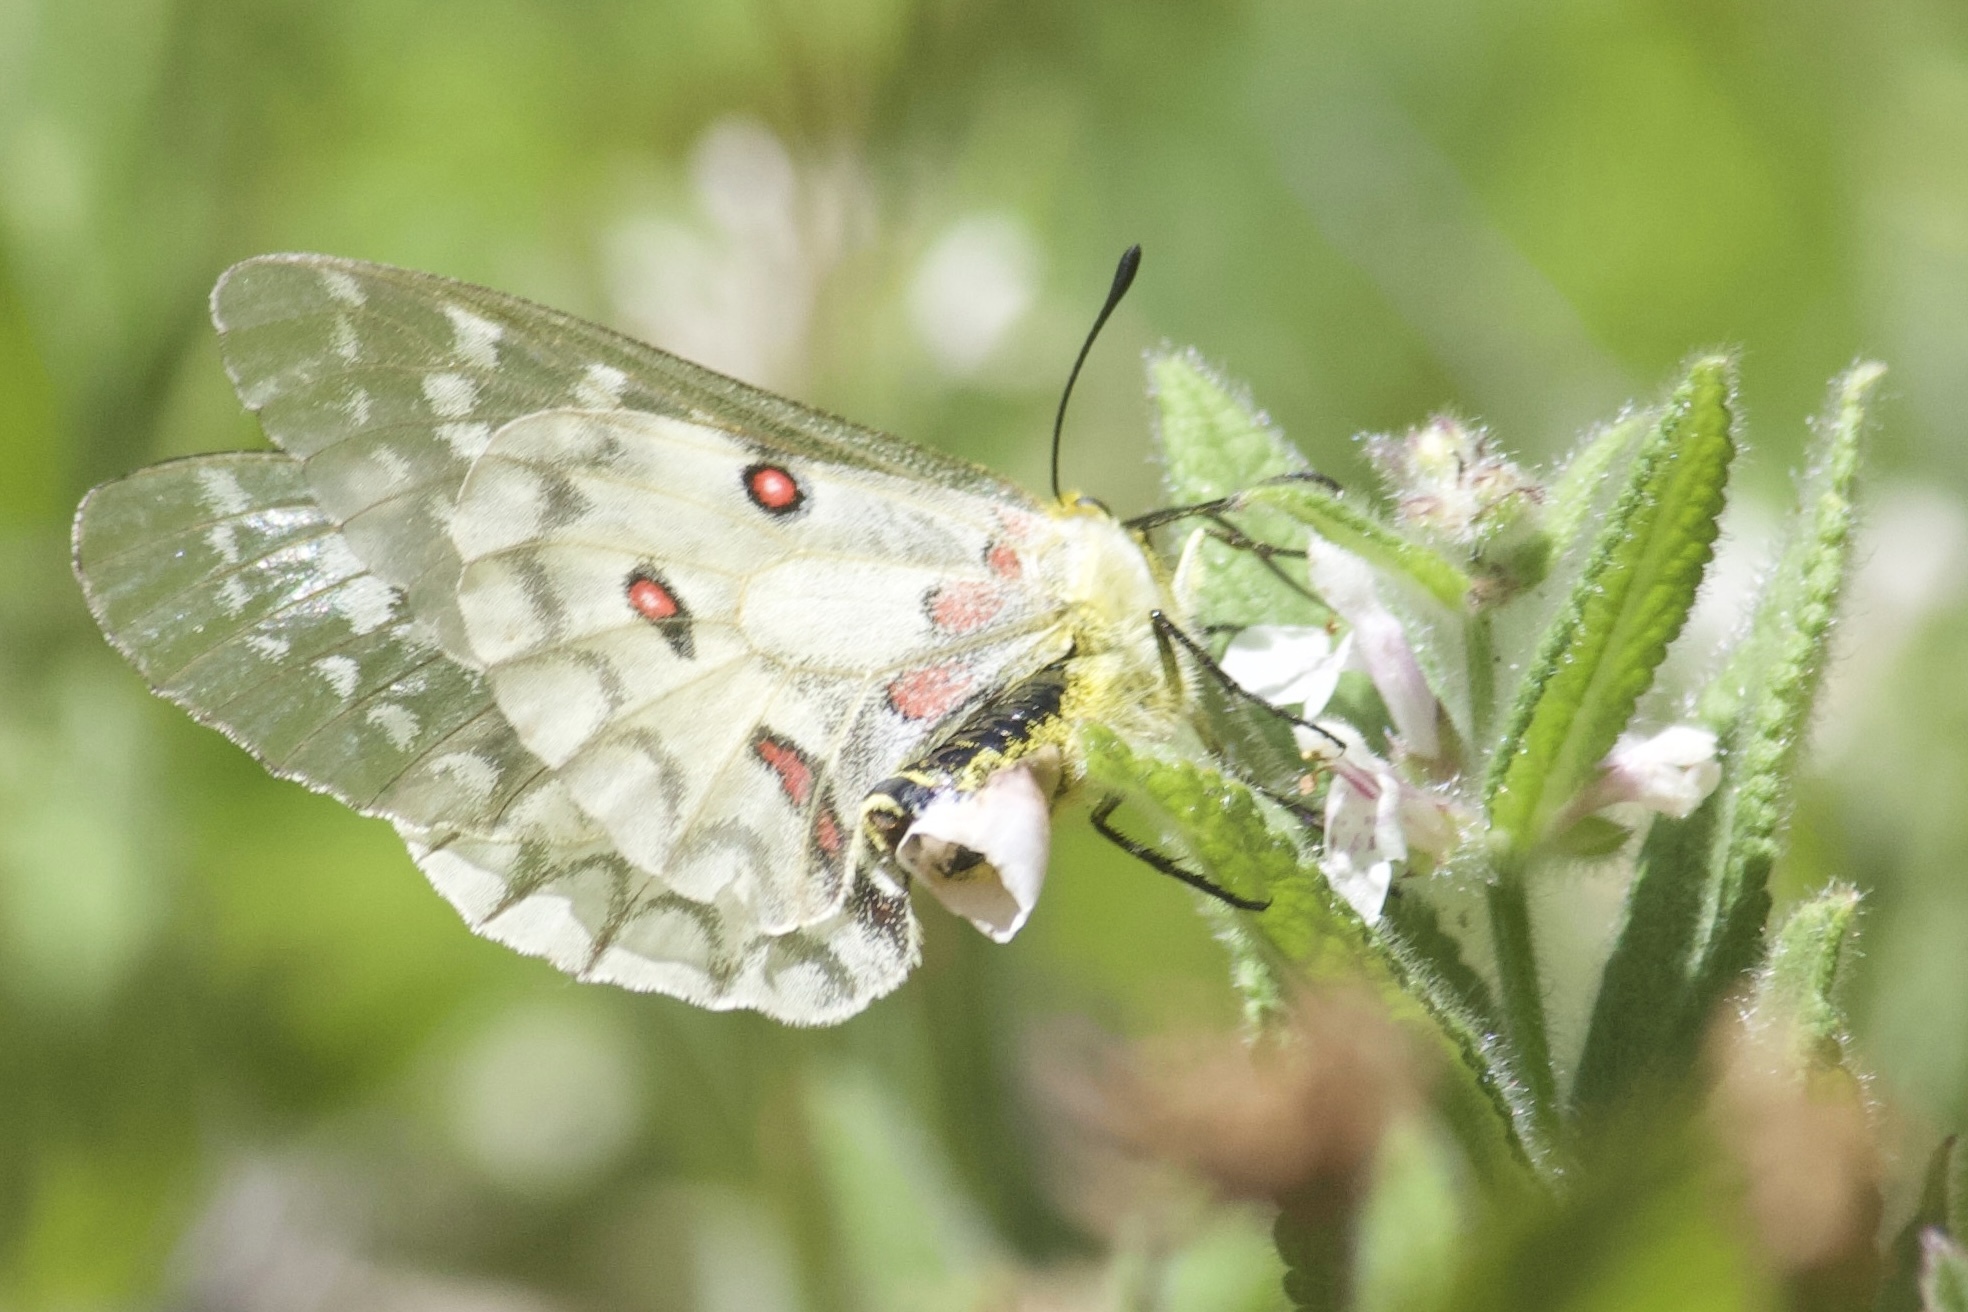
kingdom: Animalia
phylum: Arthropoda
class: Insecta
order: Lepidoptera
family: Papilionidae
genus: Parnassius
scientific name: Parnassius clodius
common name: American apollo
